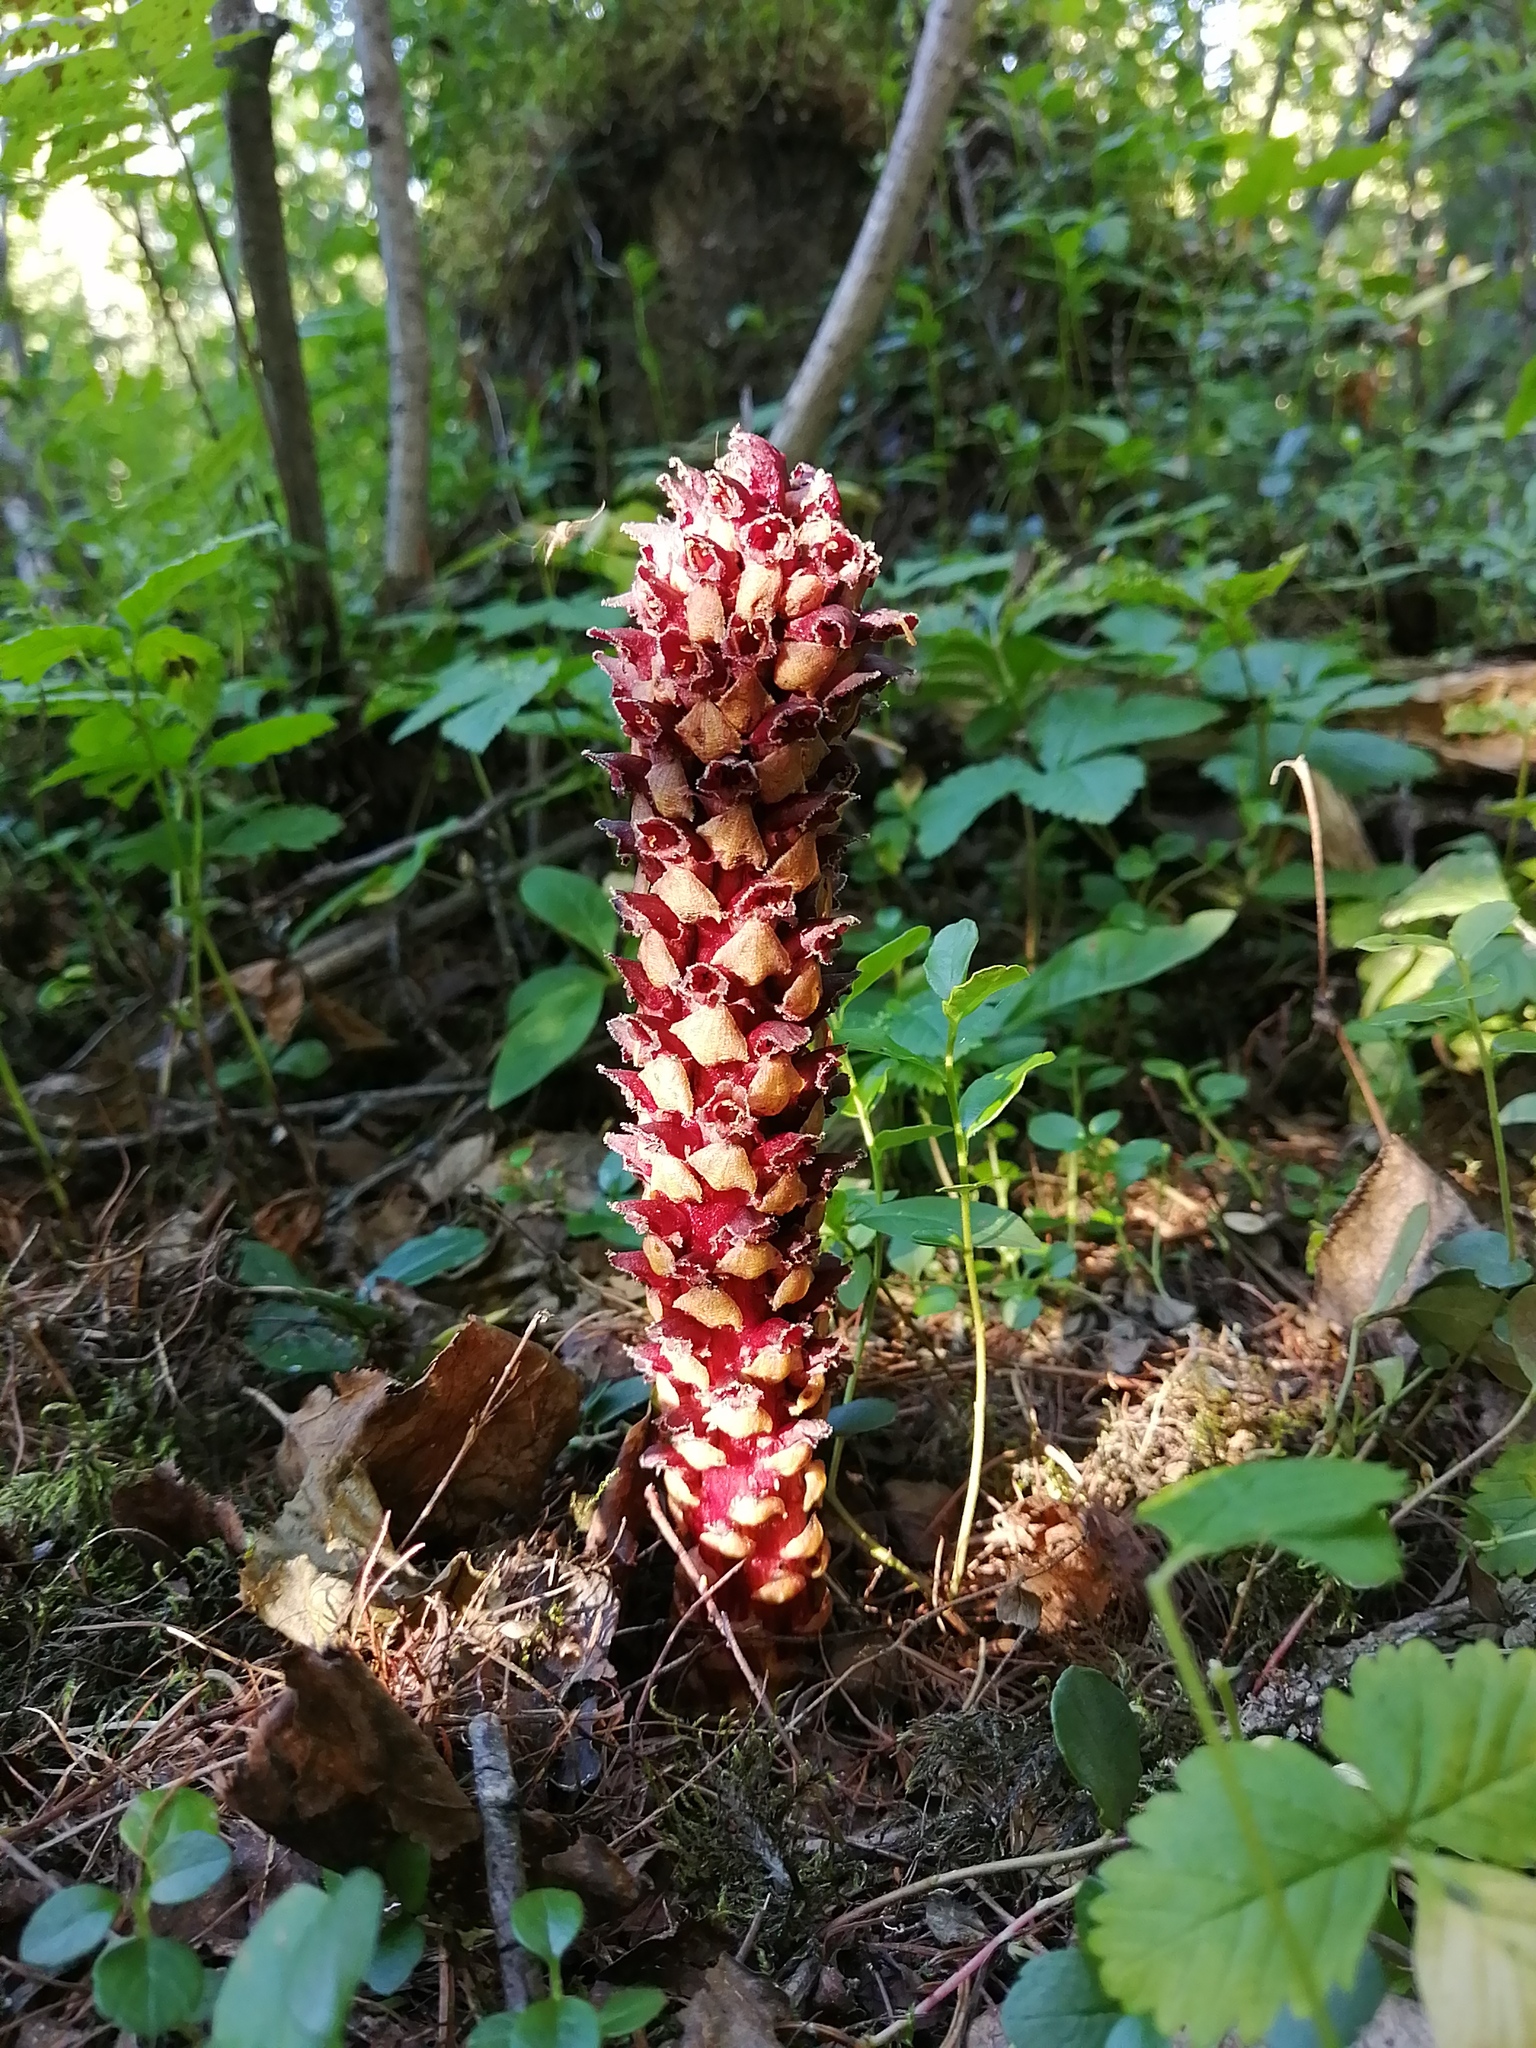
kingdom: Plantae
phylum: Tracheophyta
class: Magnoliopsida
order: Lamiales
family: Orobanchaceae
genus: Boschniakia
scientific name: Boschniakia rossica
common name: Poque
